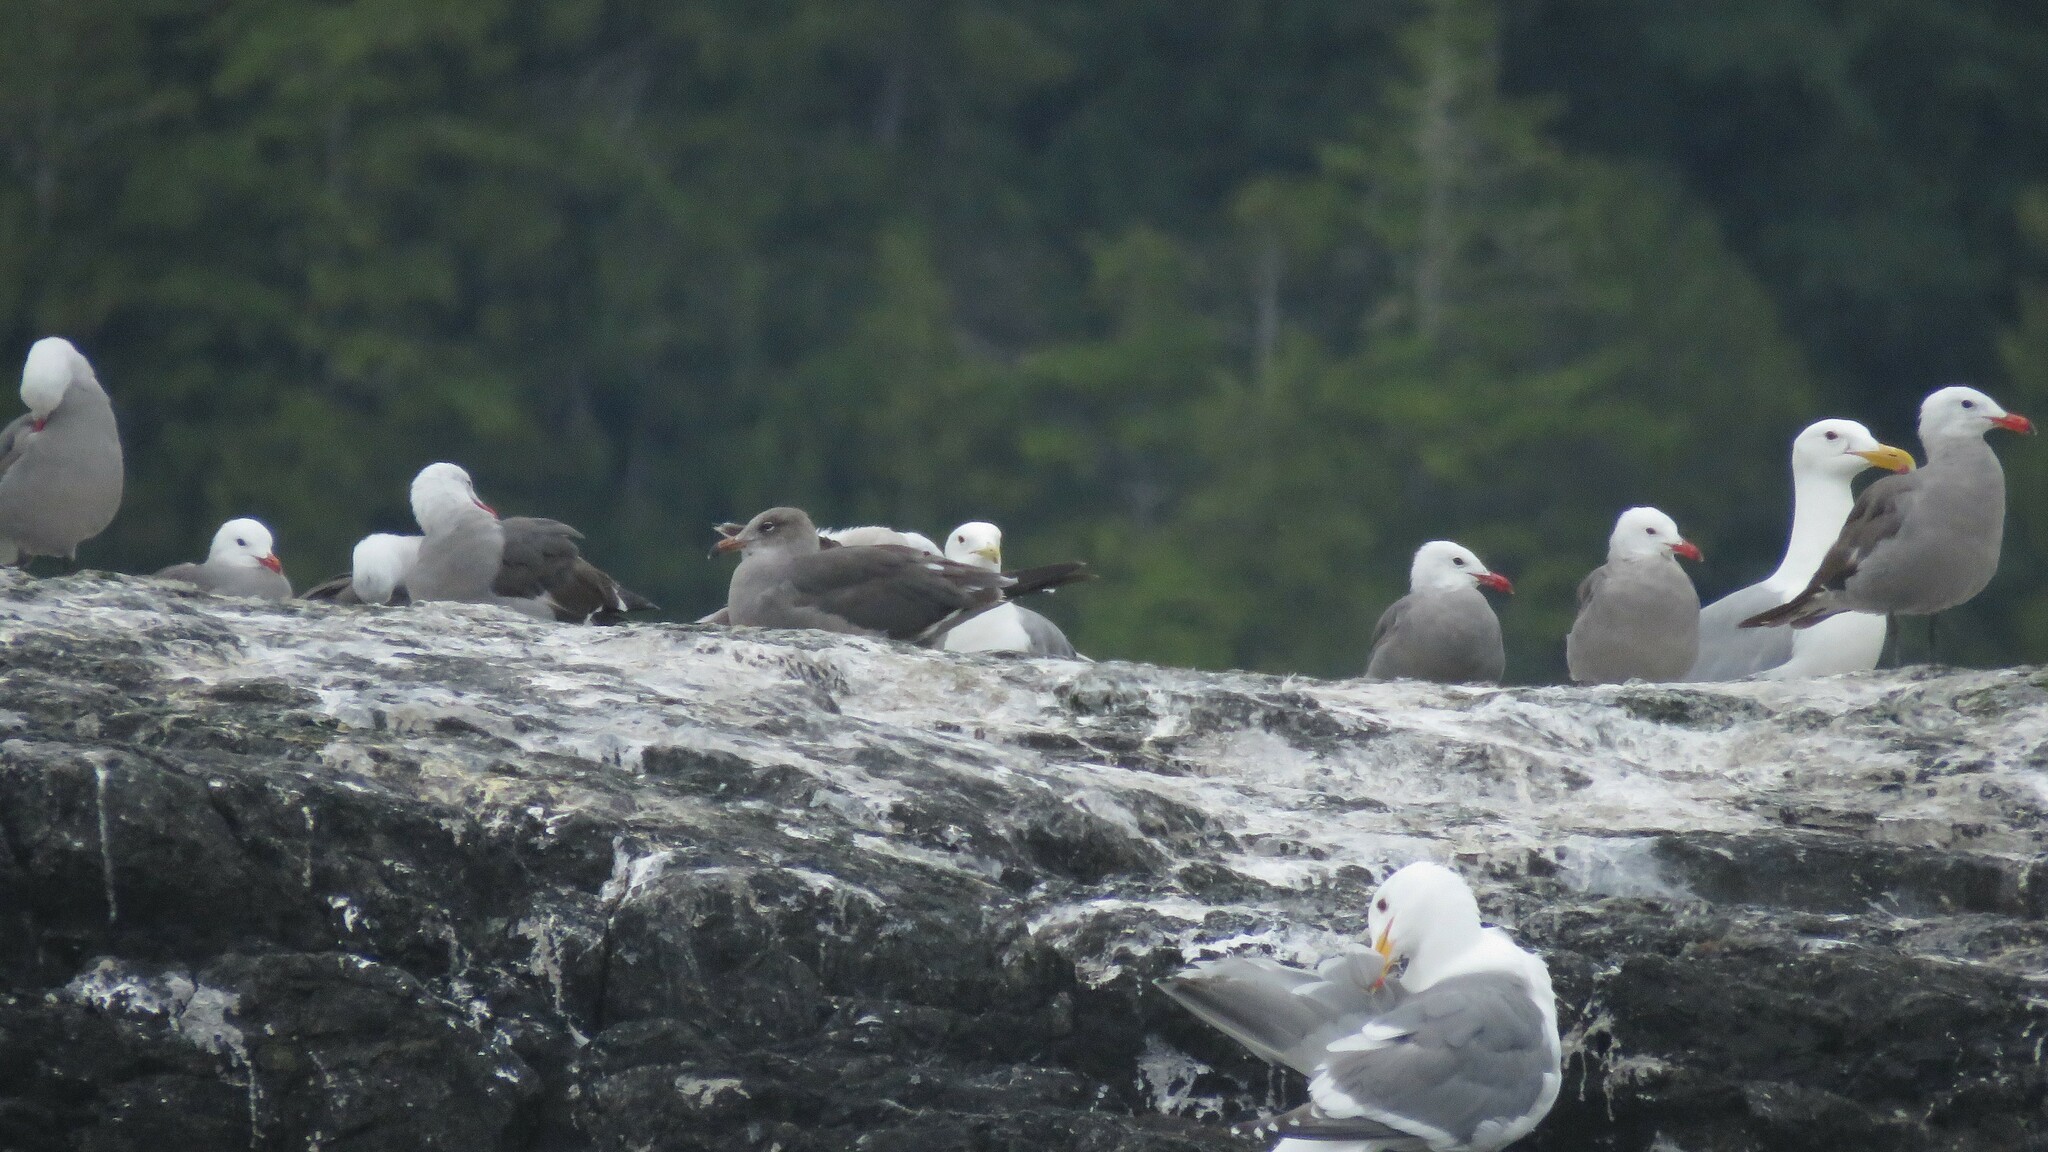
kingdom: Animalia
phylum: Chordata
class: Aves
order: Charadriiformes
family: Laridae
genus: Larus
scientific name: Larus heermanni
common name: Heermann's gull
